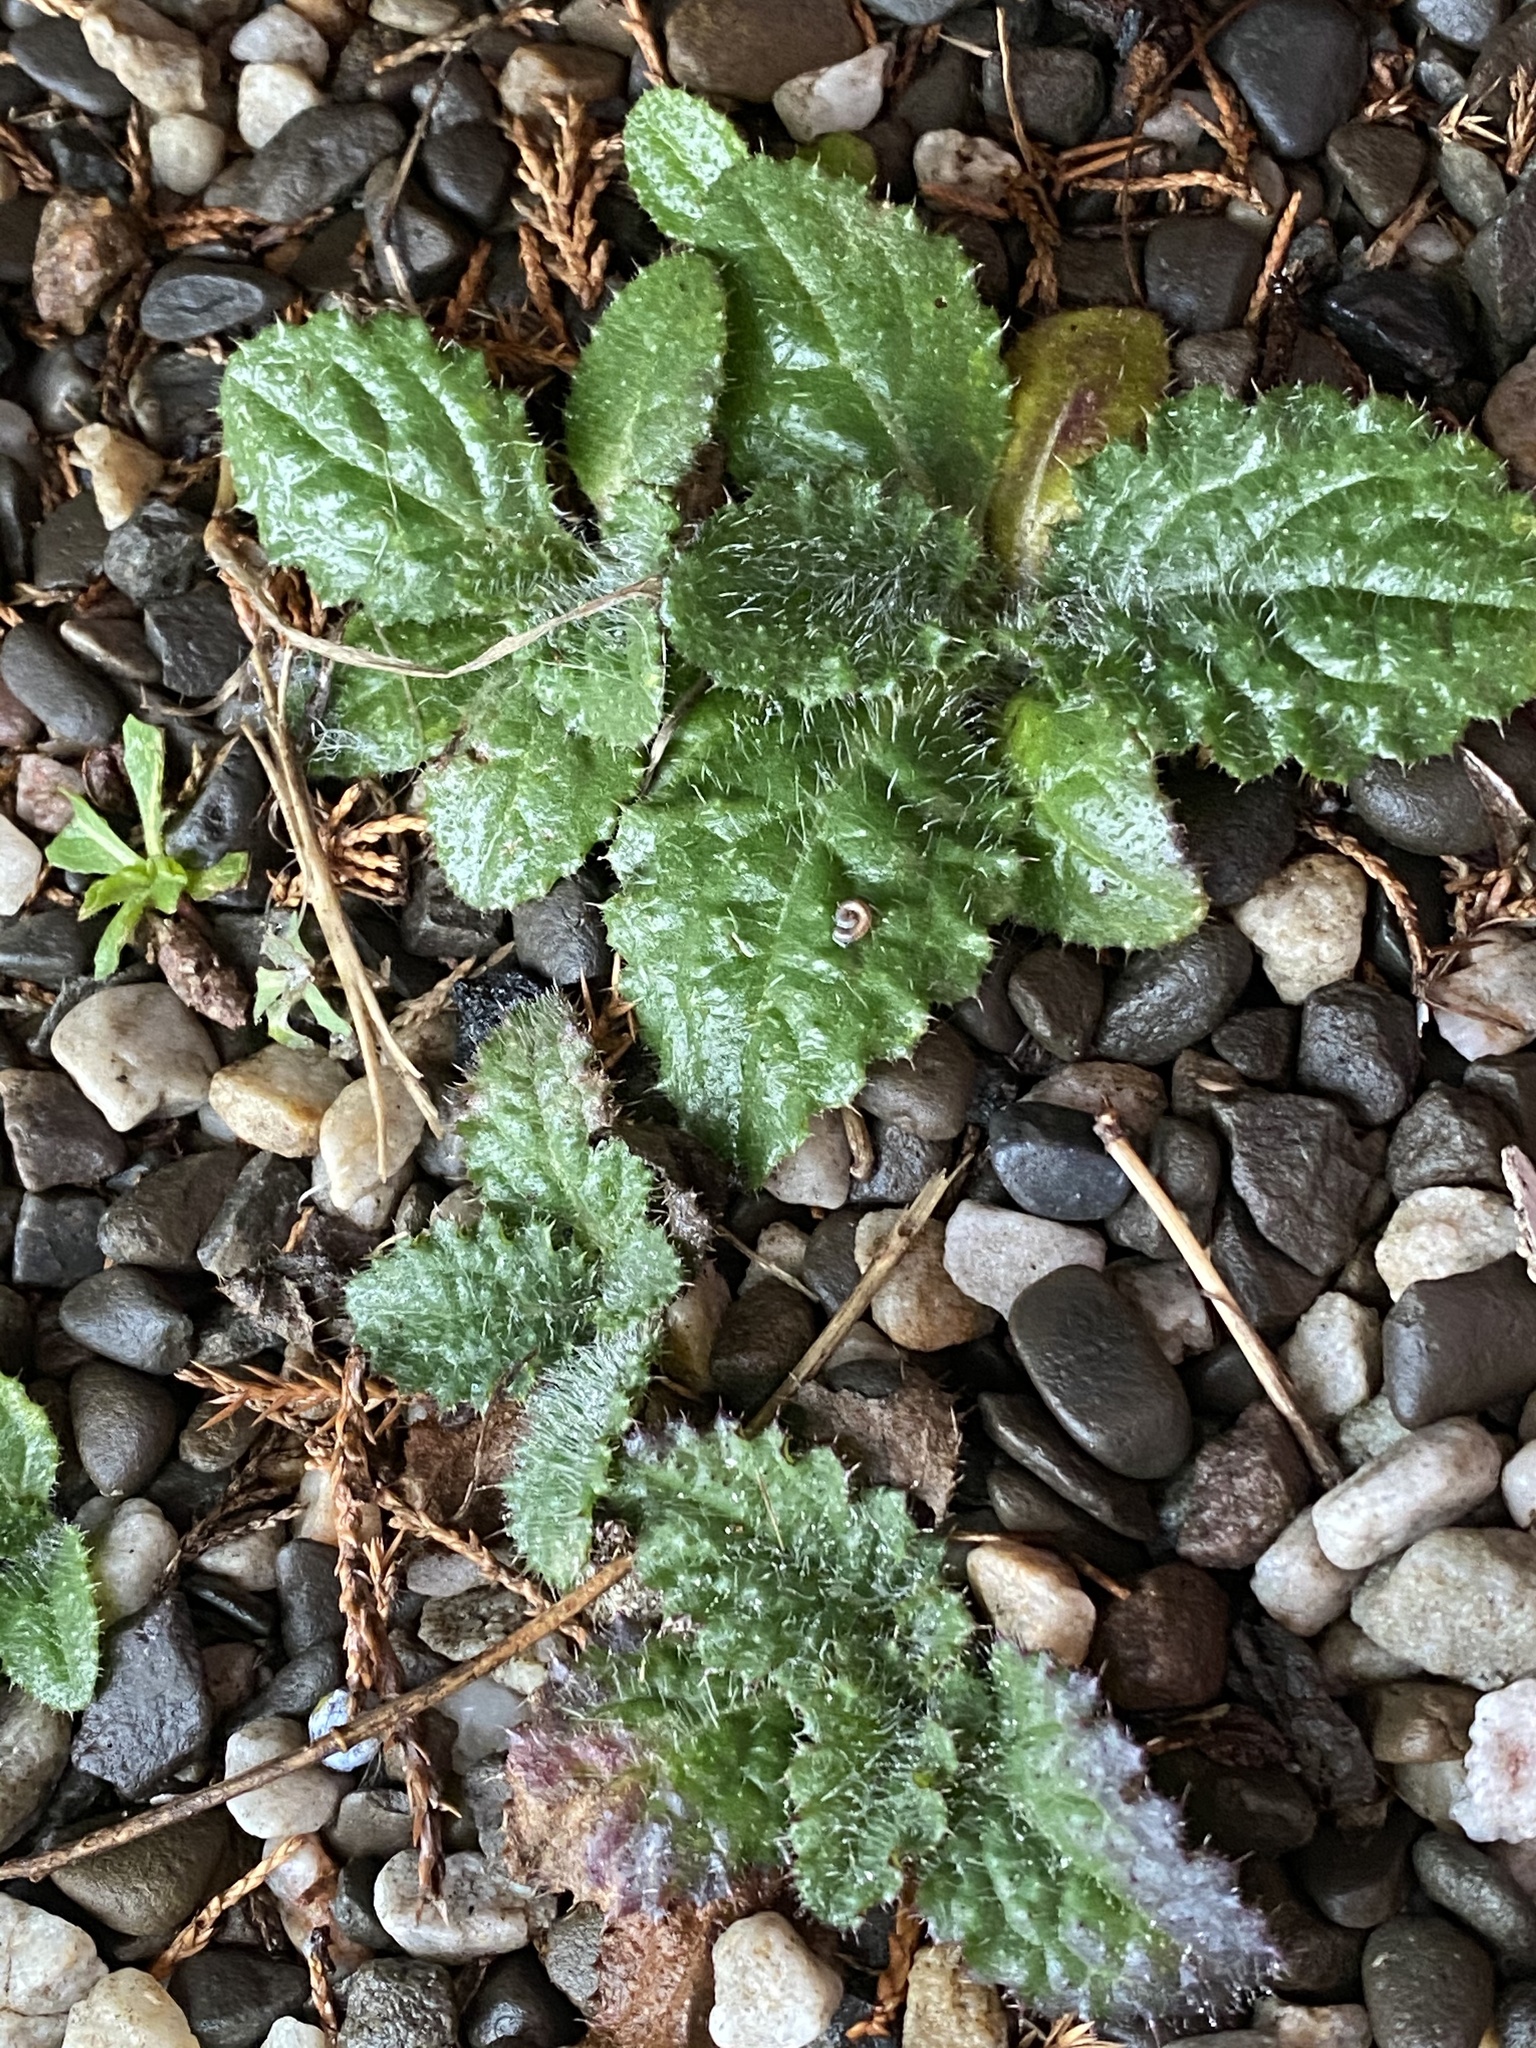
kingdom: Plantae
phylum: Tracheophyta
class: Magnoliopsida
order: Asterales
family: Asteraceae
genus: Cirsium
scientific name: Cirsium vulgare
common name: Bull thistle
